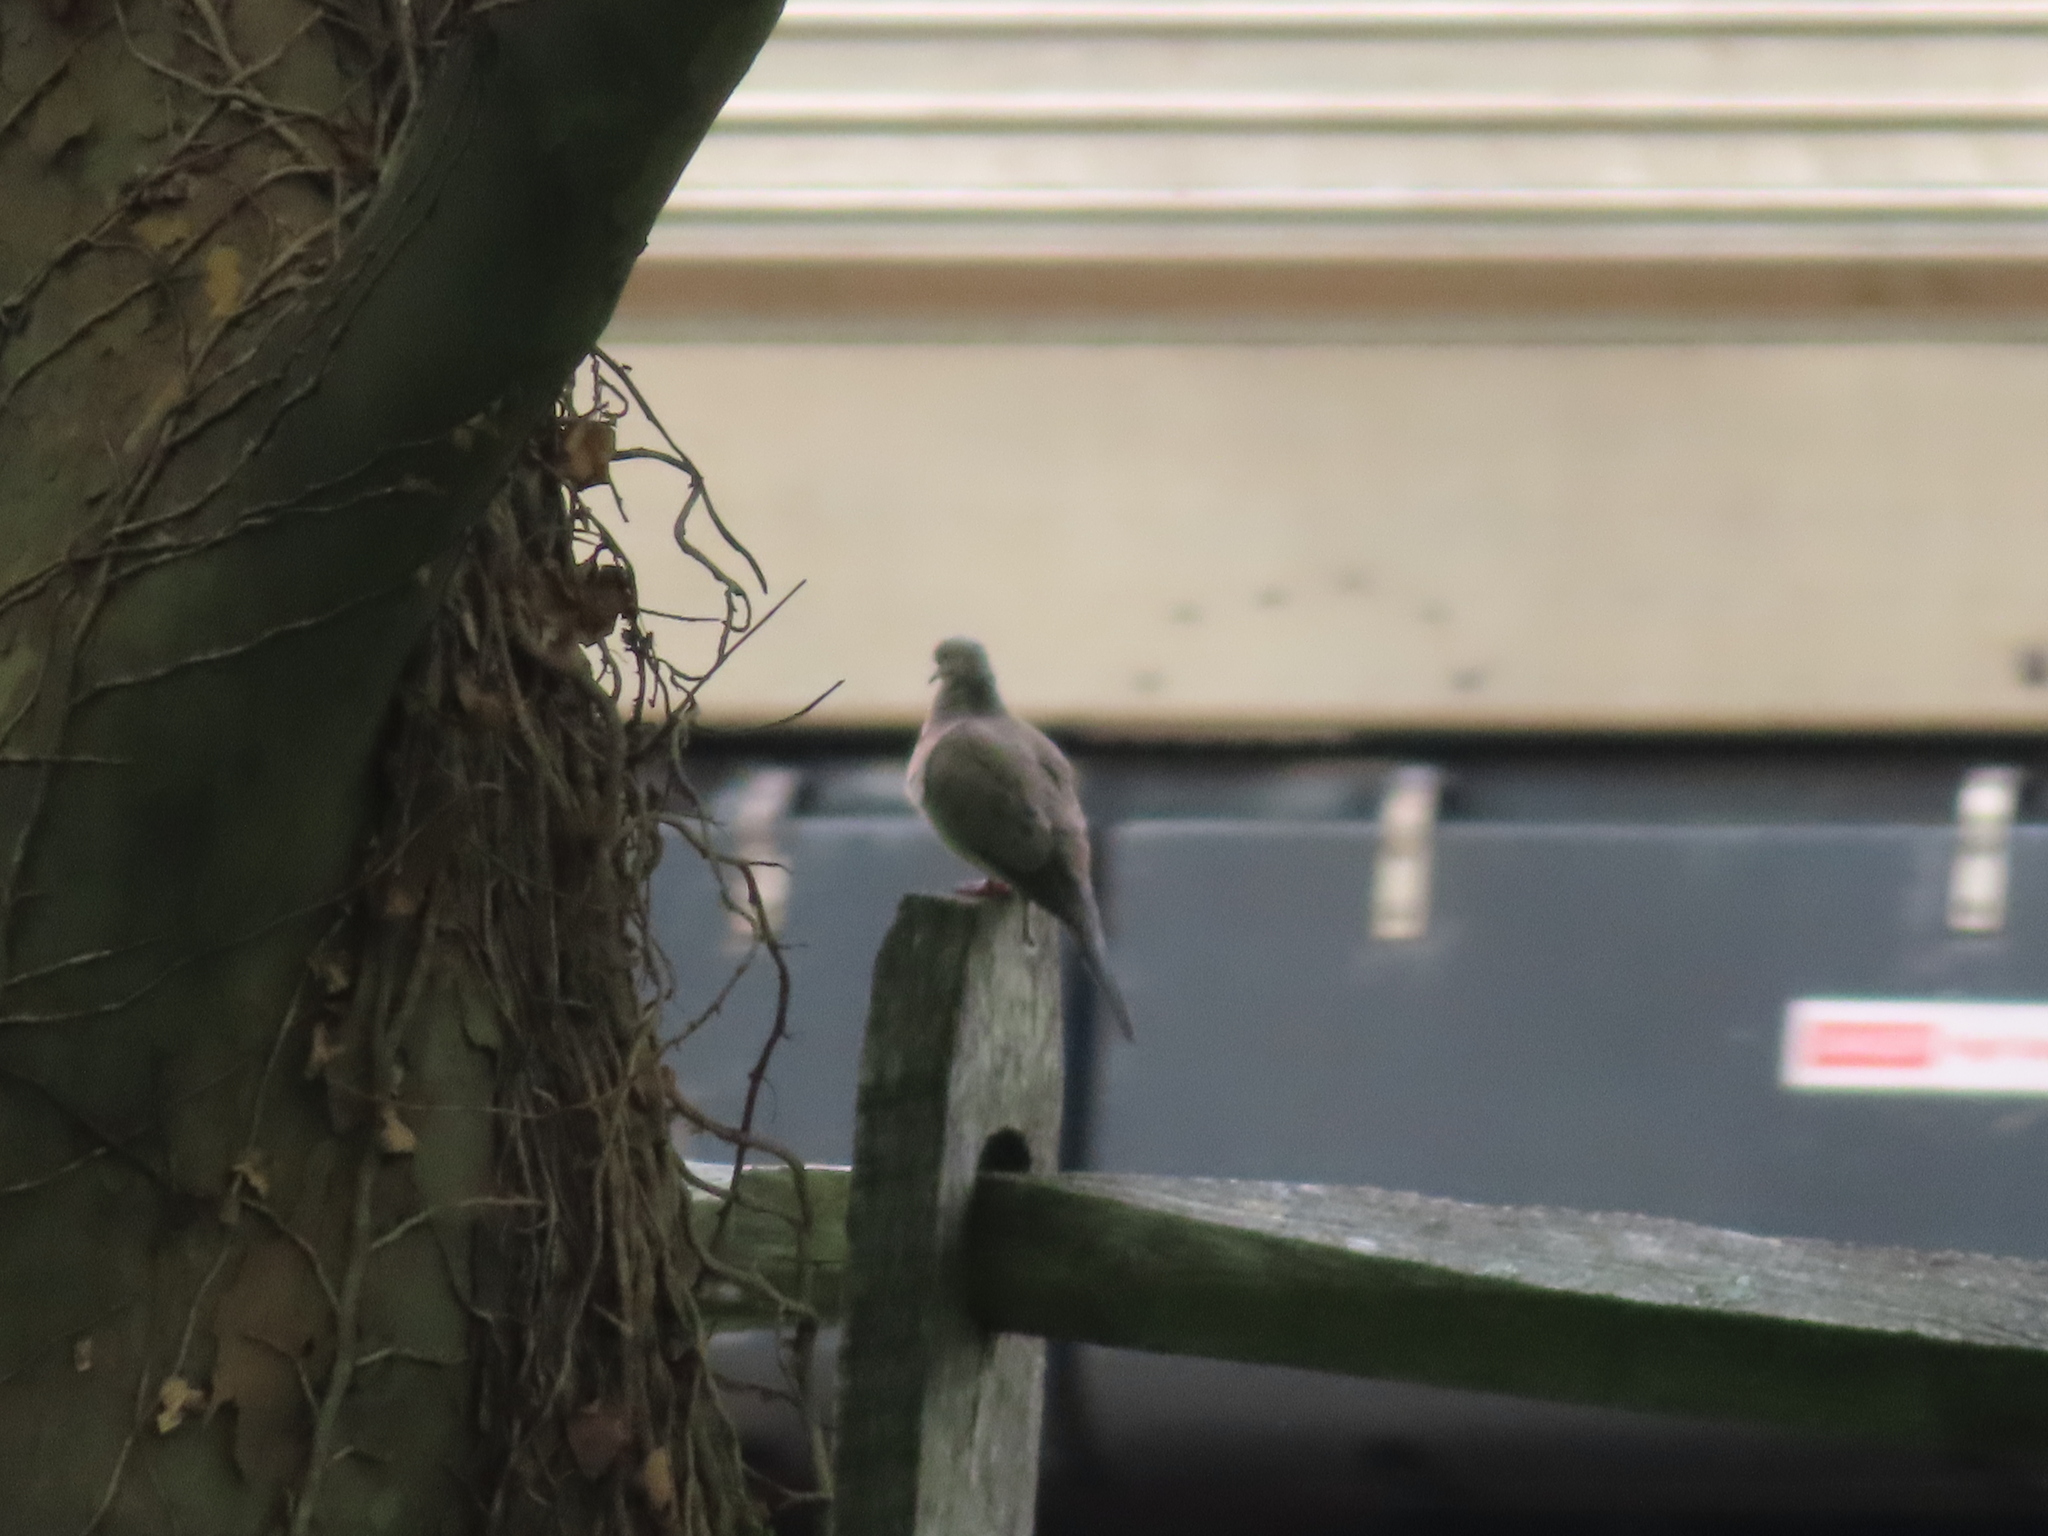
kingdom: Animalia
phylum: Chordata
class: Aves
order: Columbiformes
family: Columbidae
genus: Zenaida
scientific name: Zenaida macroura
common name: Mourning dove
